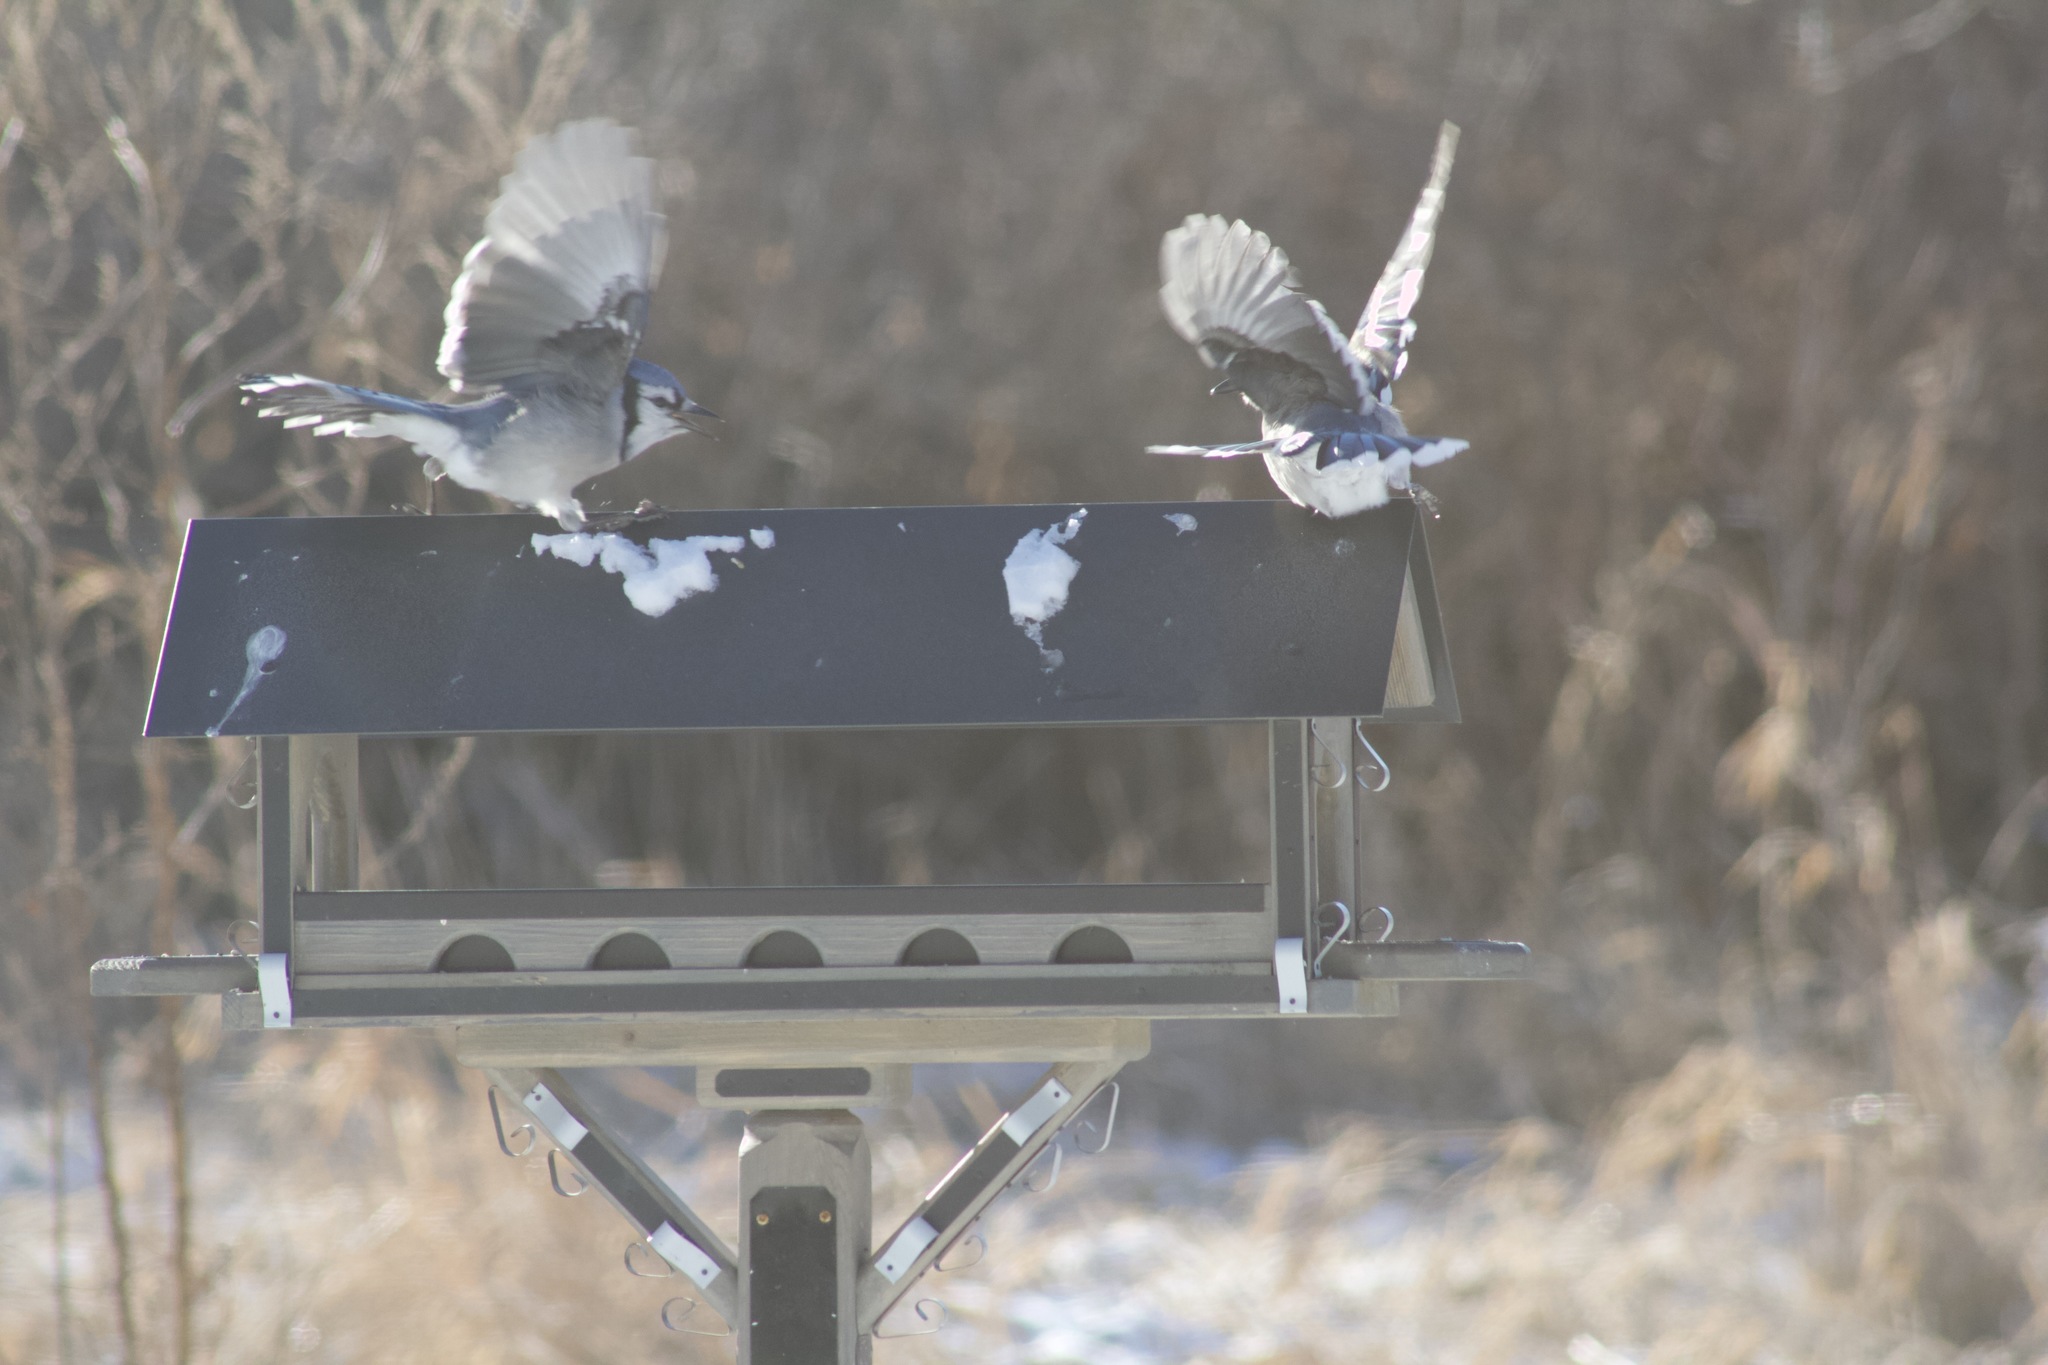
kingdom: Animalia
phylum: Chordata
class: Aves
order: Passeriformes
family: Corvidae
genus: Cyanocitta
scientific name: Cyanocitta cristata
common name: Blue jay
